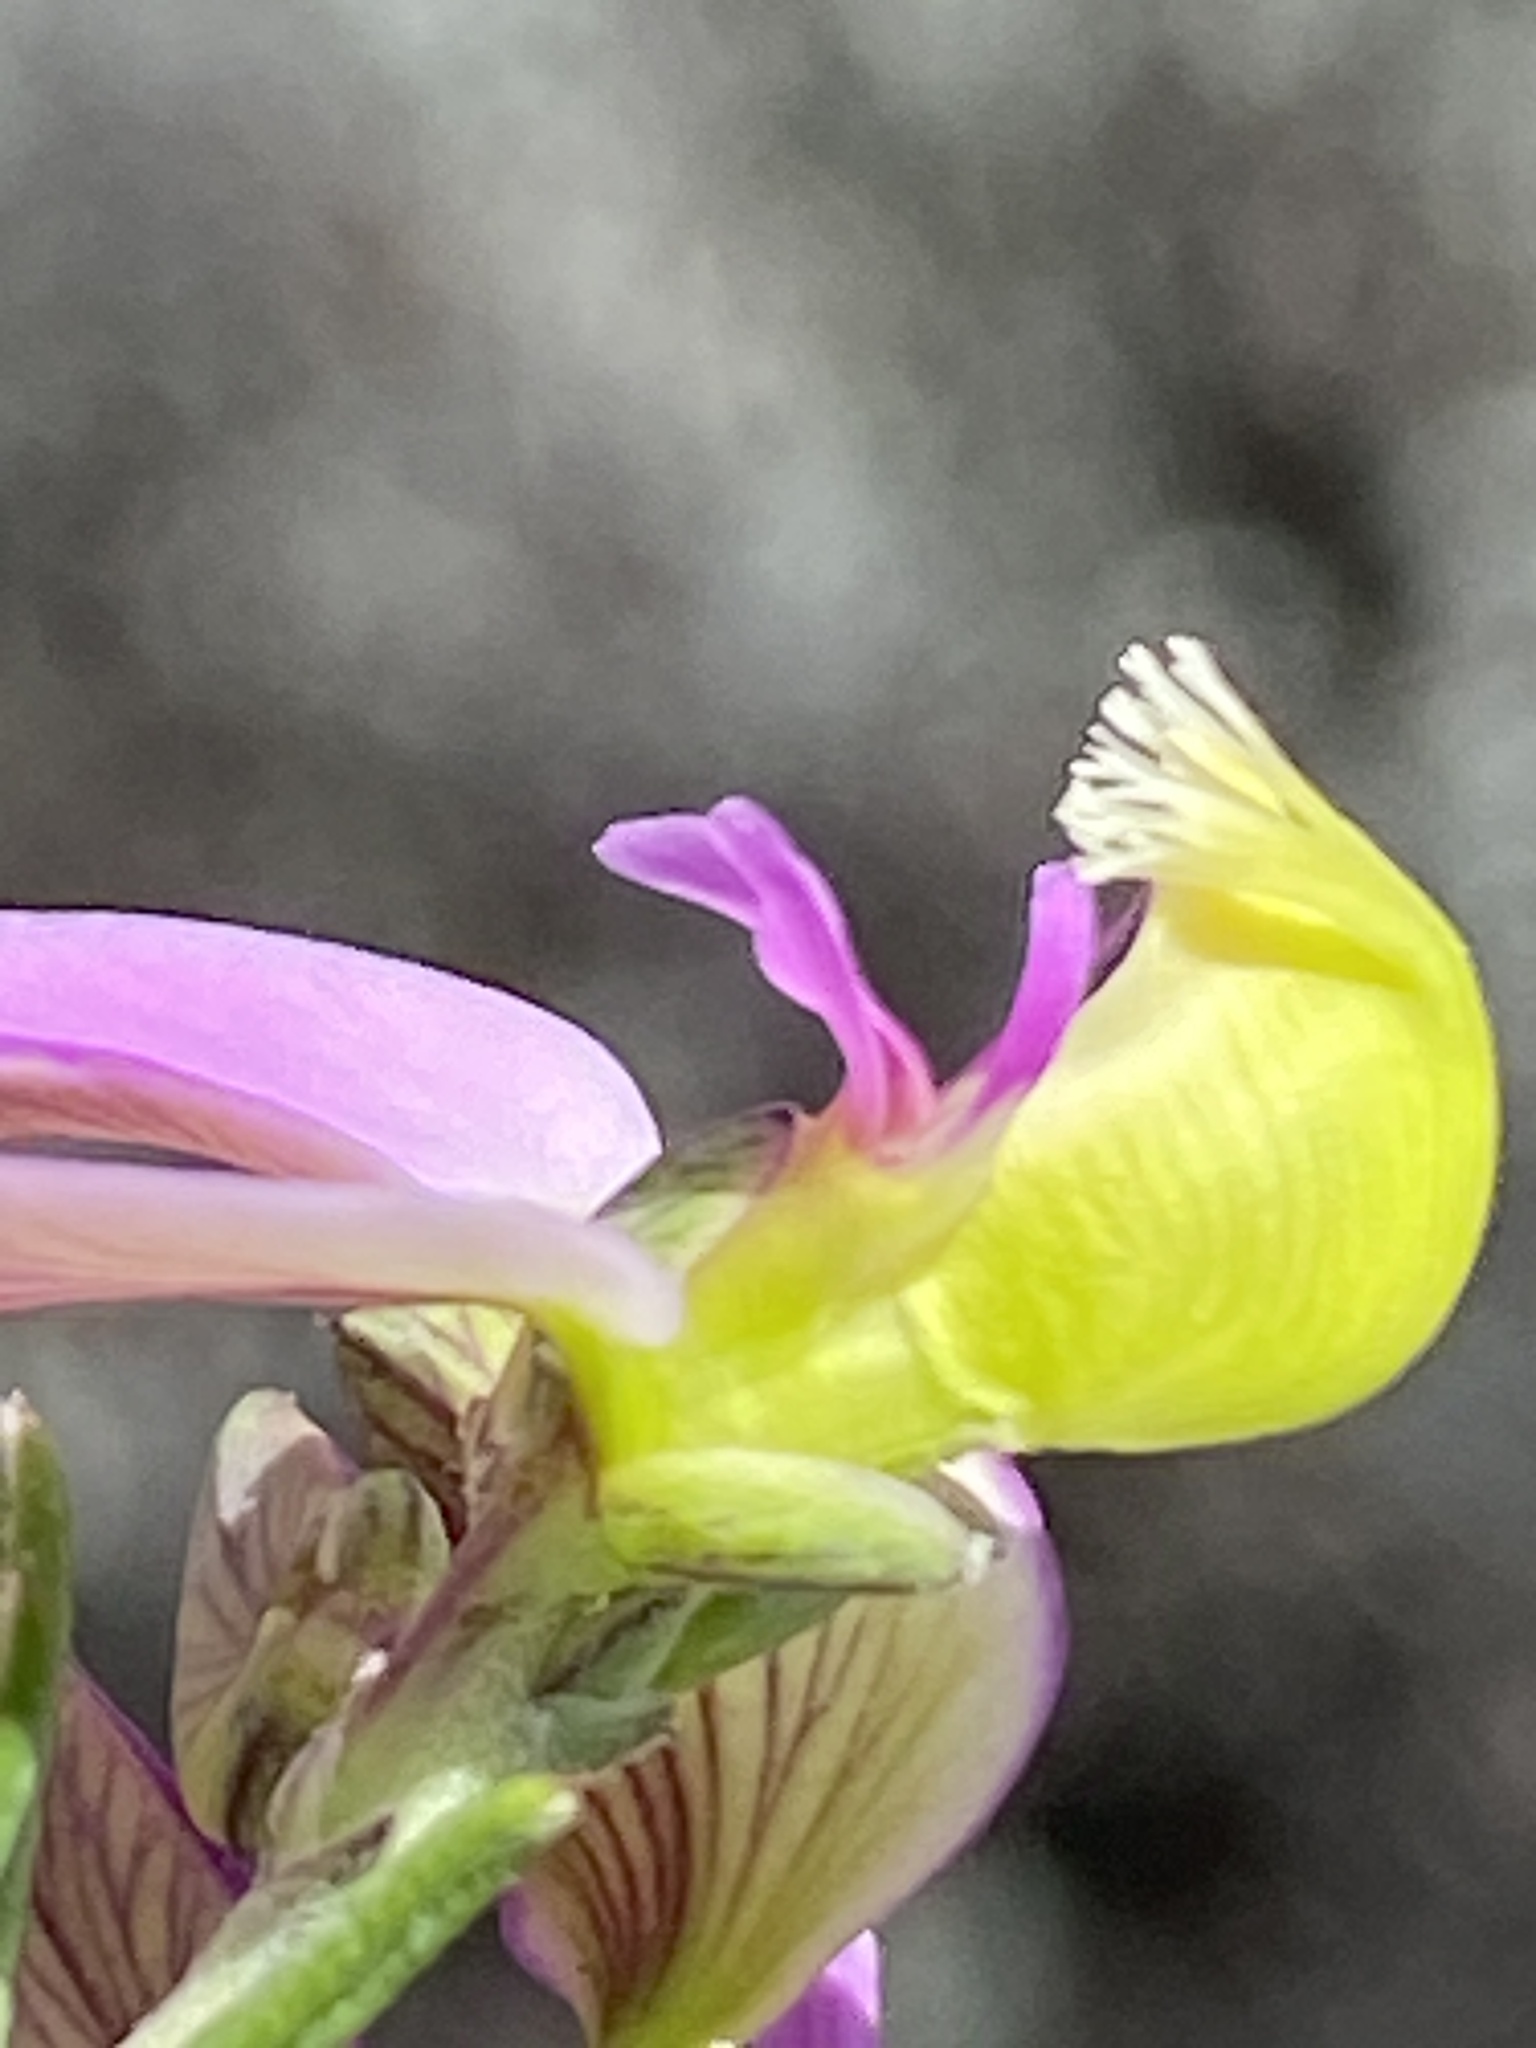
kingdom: Plantae
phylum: Tracheophyta
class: Magnoliopsida
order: Fabales
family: Polygalaceae
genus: Polygala
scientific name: Polygala teretifolia
